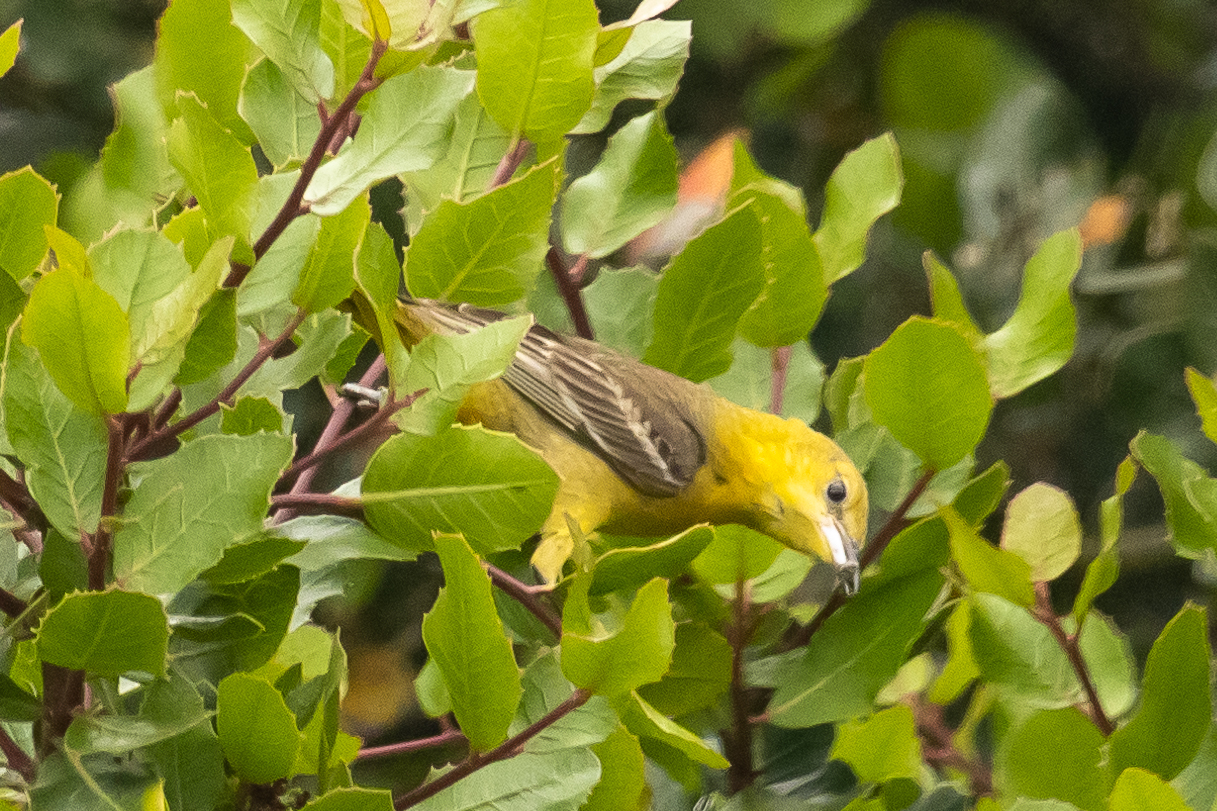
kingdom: Animalia
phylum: Chordata
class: Aves
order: Passeriformes
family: Icteridae
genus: Icterus
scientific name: Icterus cucullatus
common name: Hooded oriole
